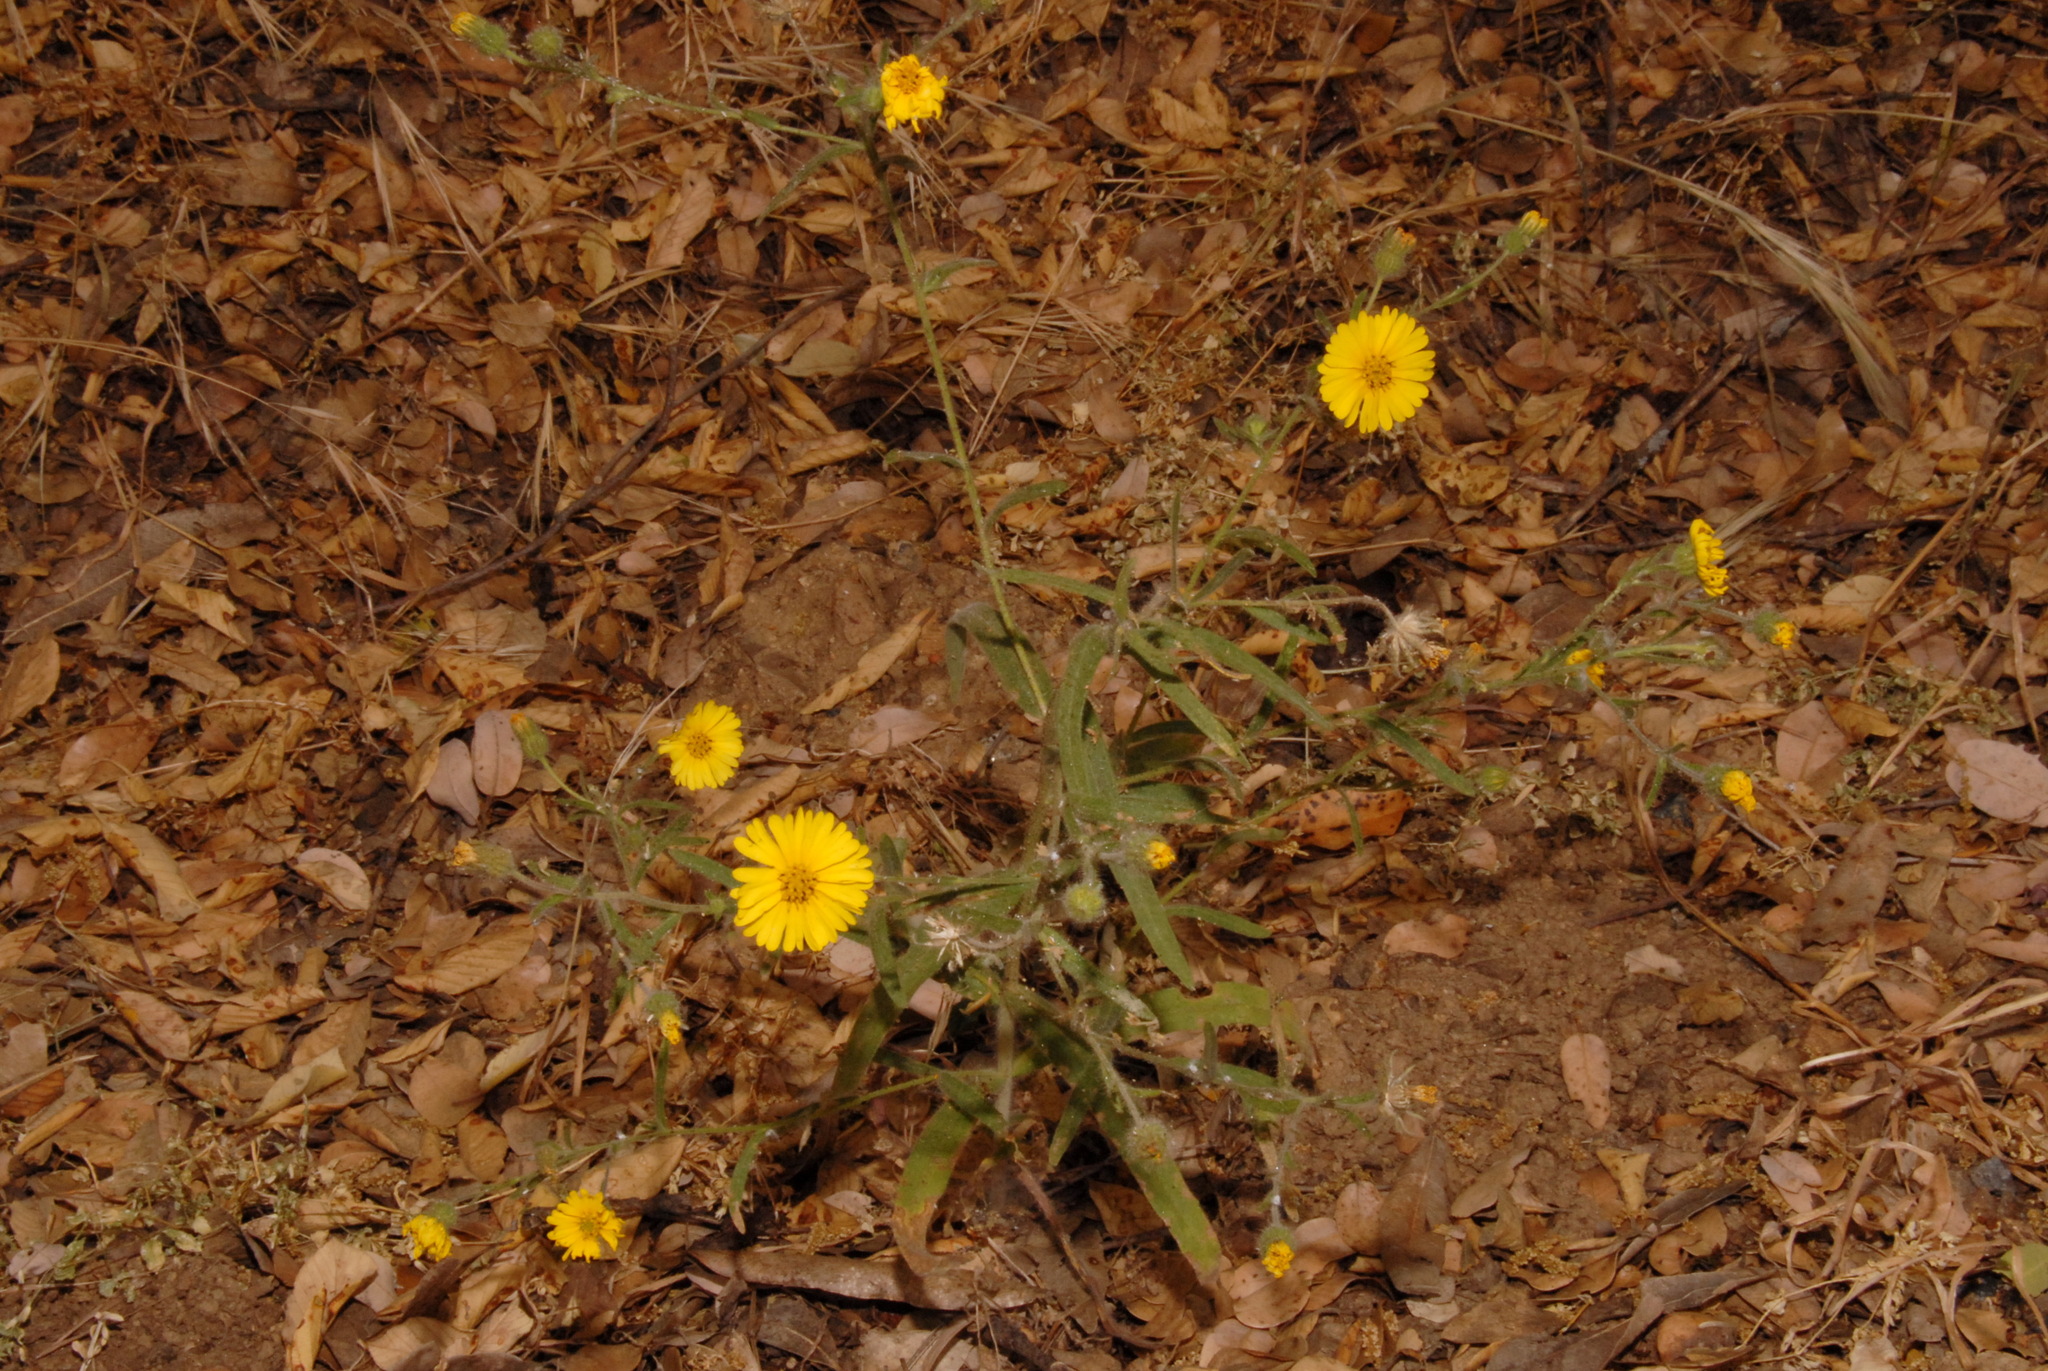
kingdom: Plantae
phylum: Tracheophyta
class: Magnoliopsida
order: Asterales
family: Asteraceae
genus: Madia
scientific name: Madia elegans
